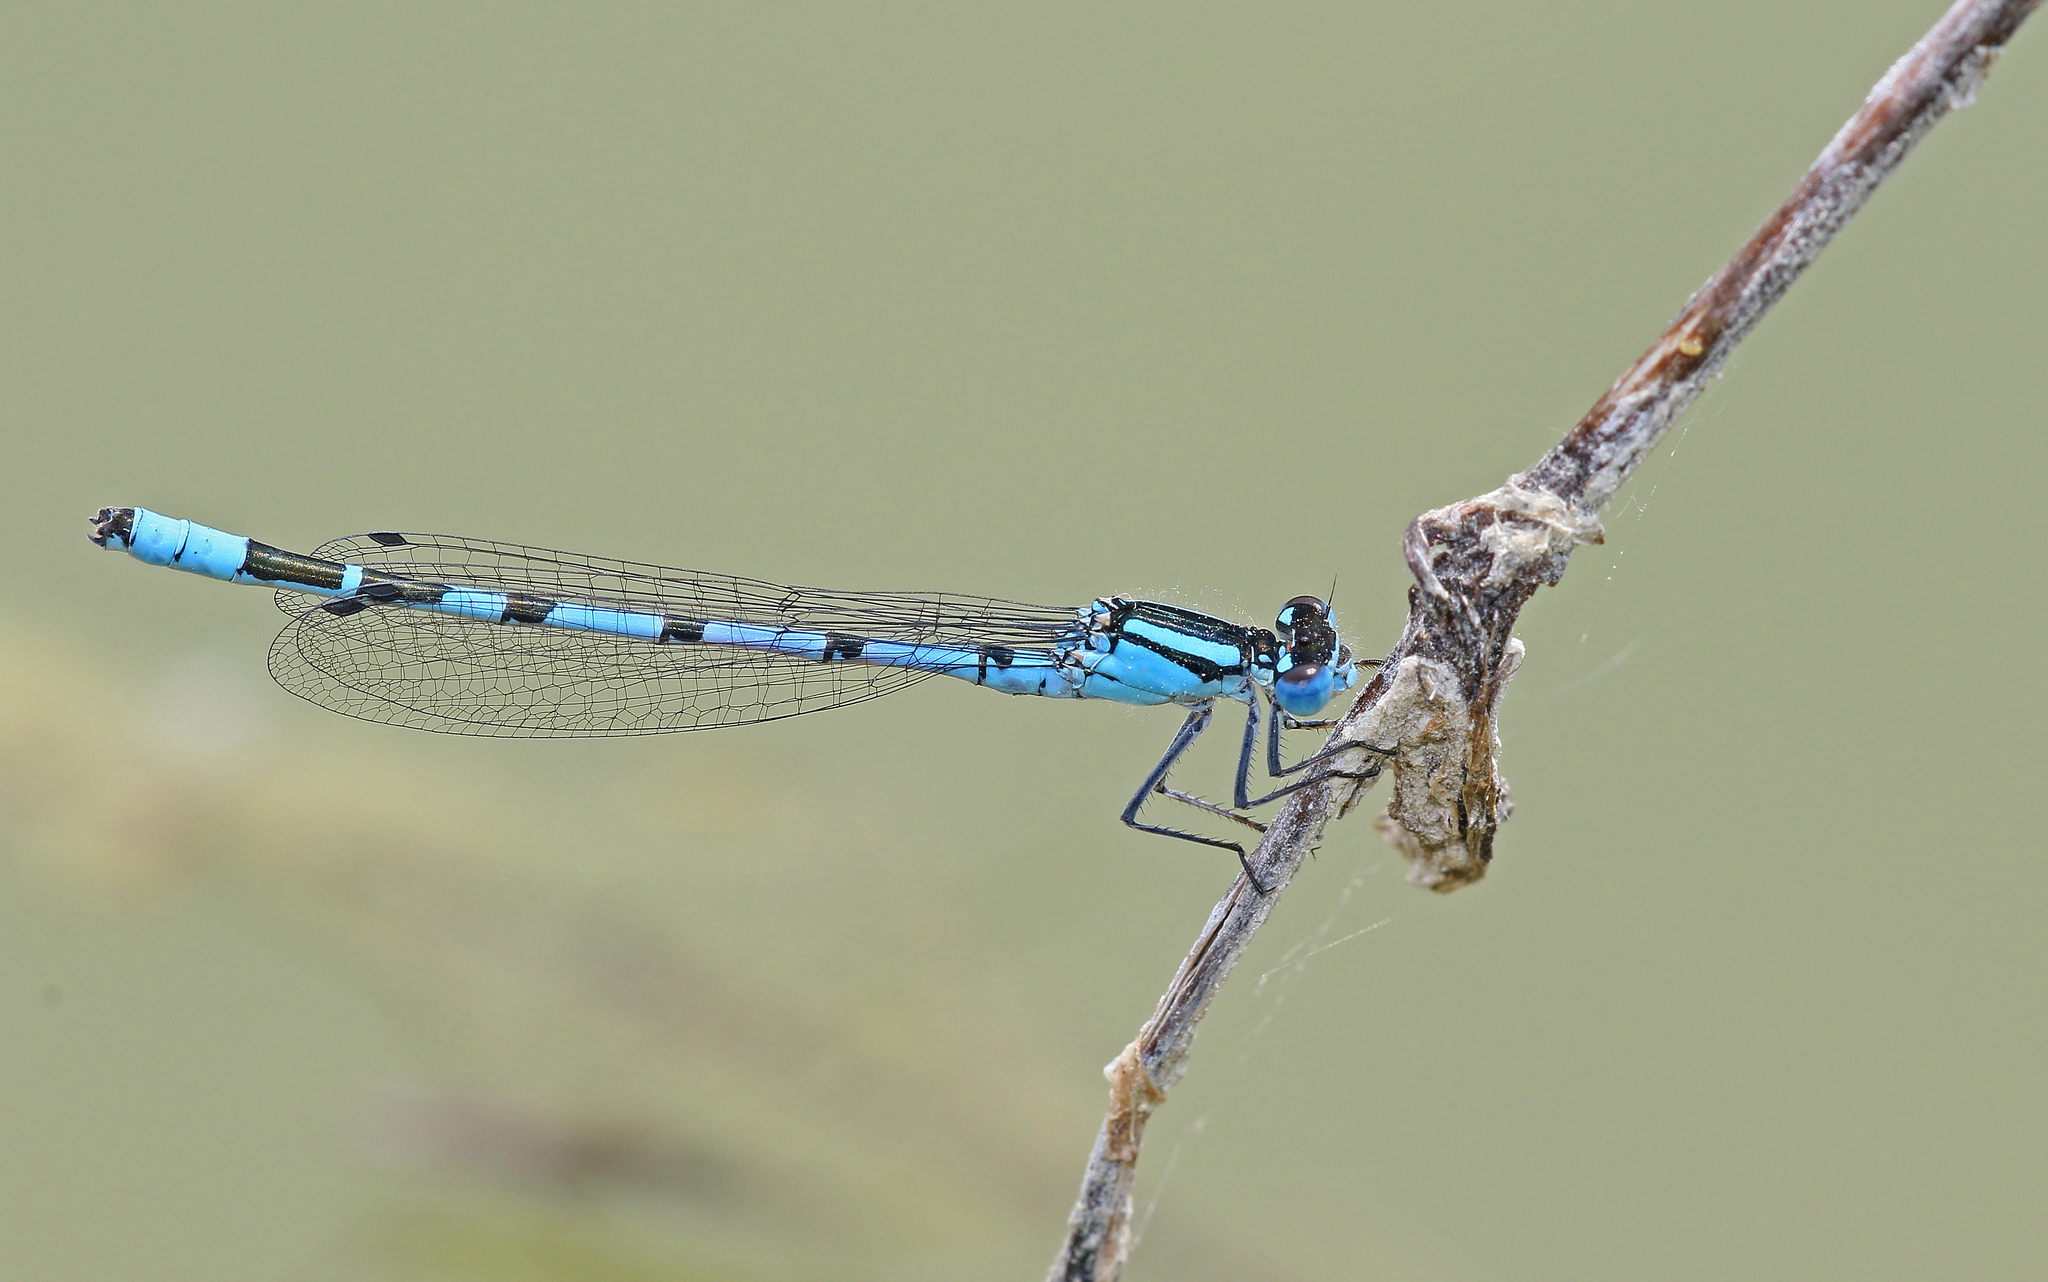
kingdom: Animalia
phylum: Arthropoda
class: Insecta
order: Odonata
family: Coenagrionidae
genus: Enallagma
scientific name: Enallagma cyathigerum
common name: Common blue damselfly
